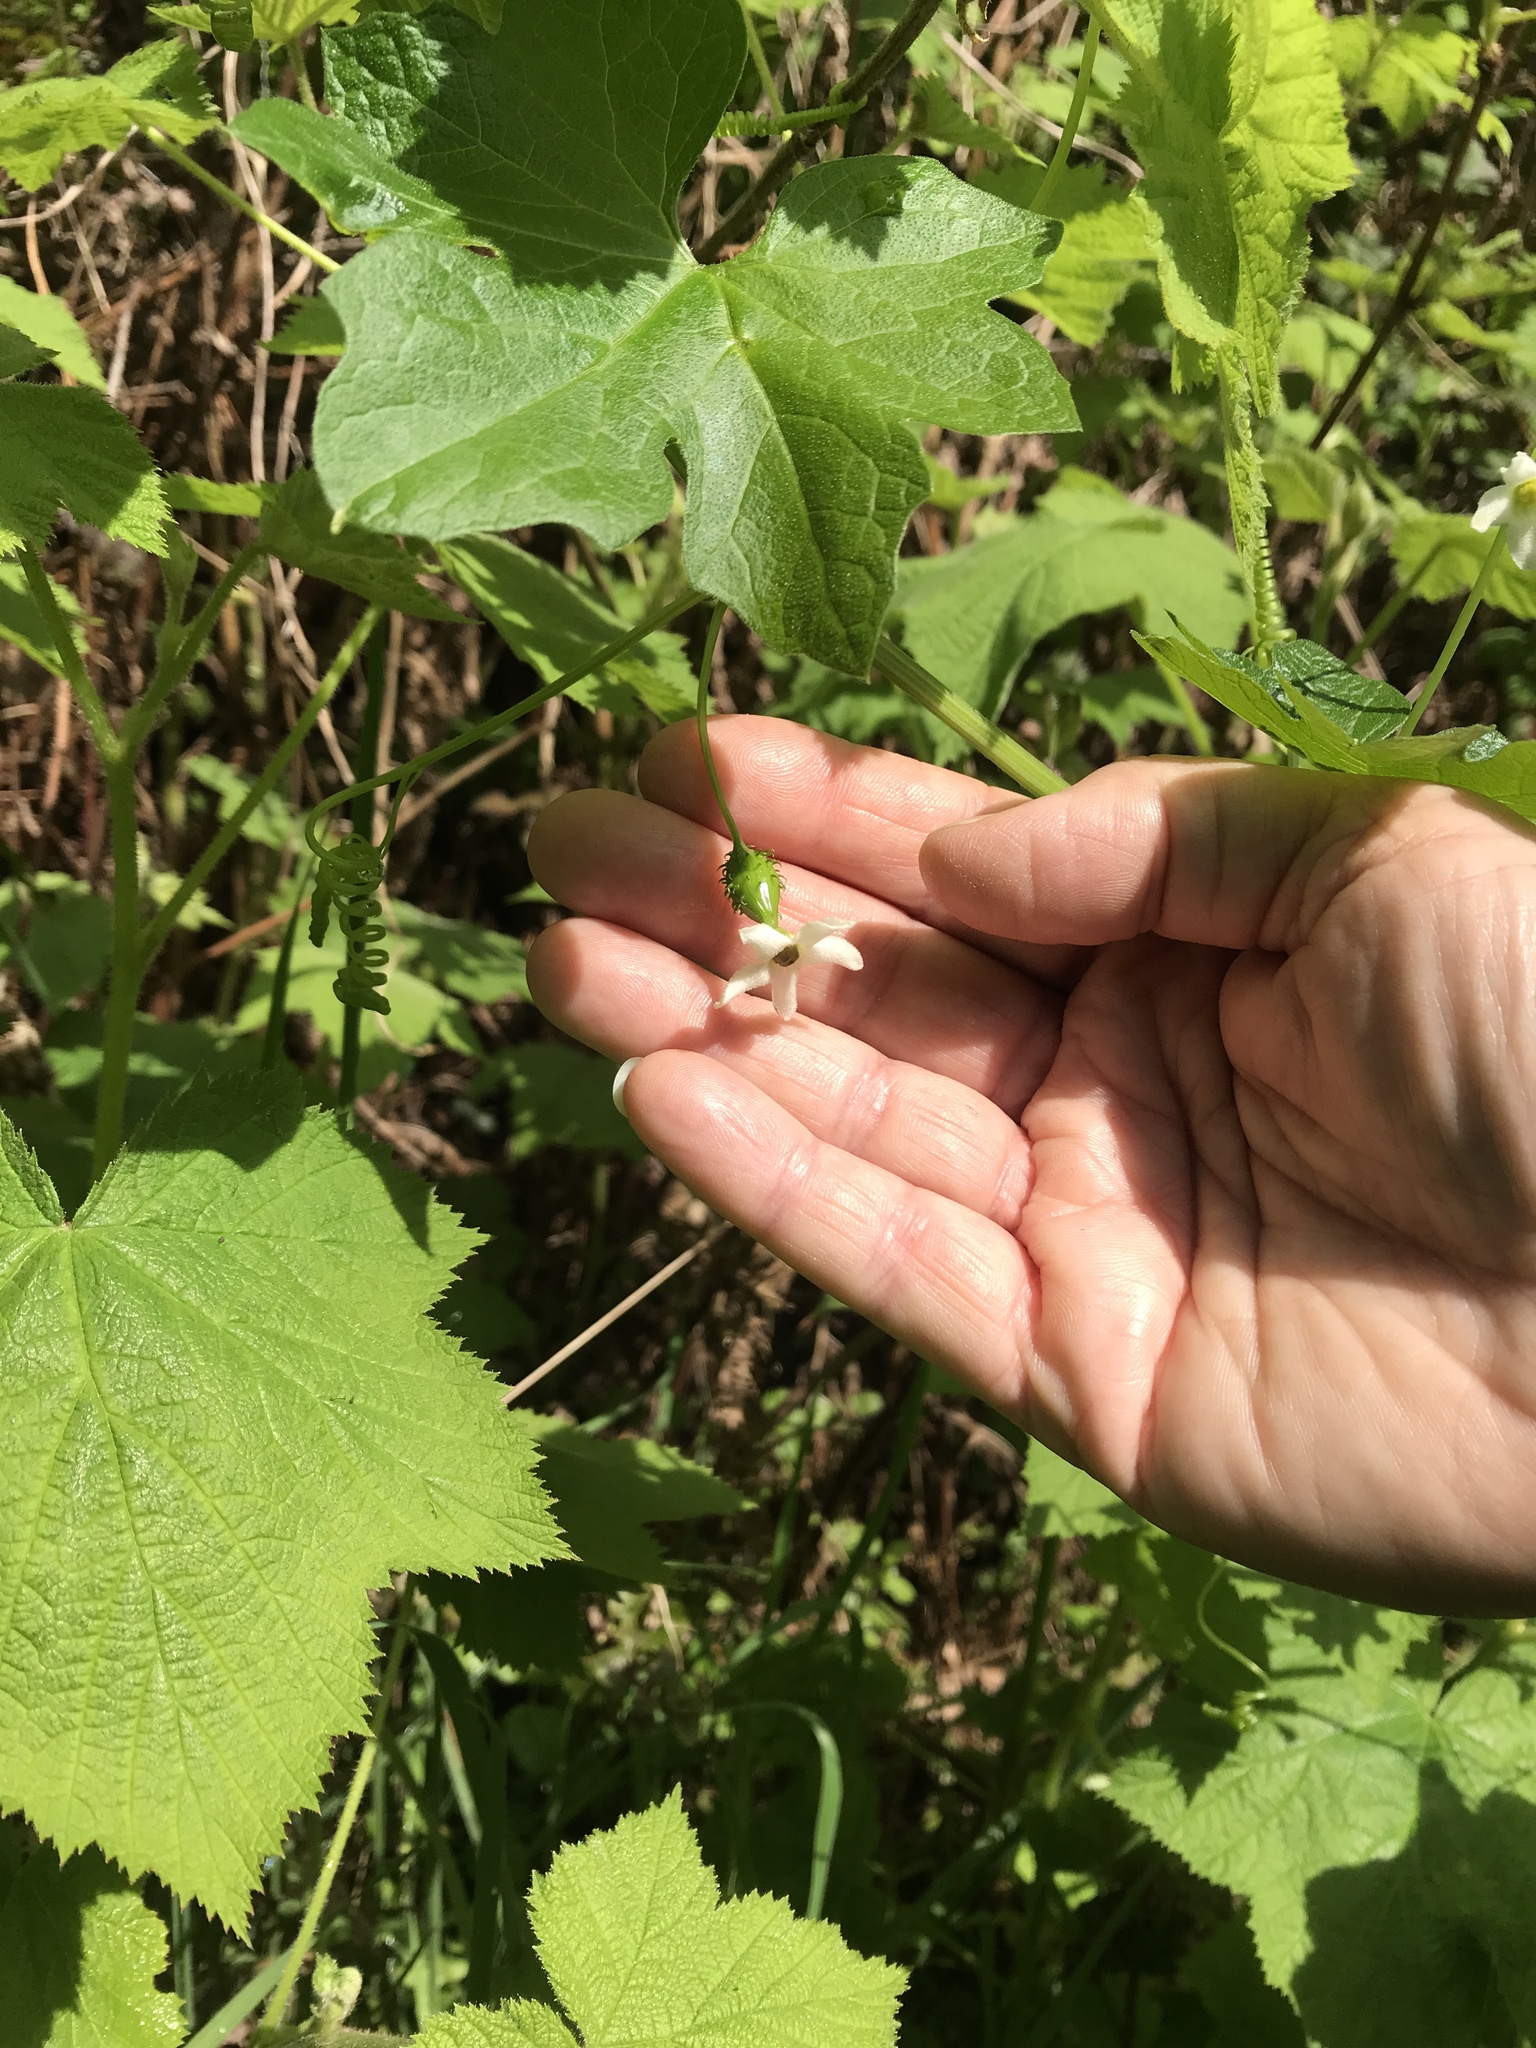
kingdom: Plantae
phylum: Tracheophyta
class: Magnoliopsida
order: Cucurbitales
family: Cucurbitaceae
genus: Marah
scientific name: Marah oregana
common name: Coastal manroot
